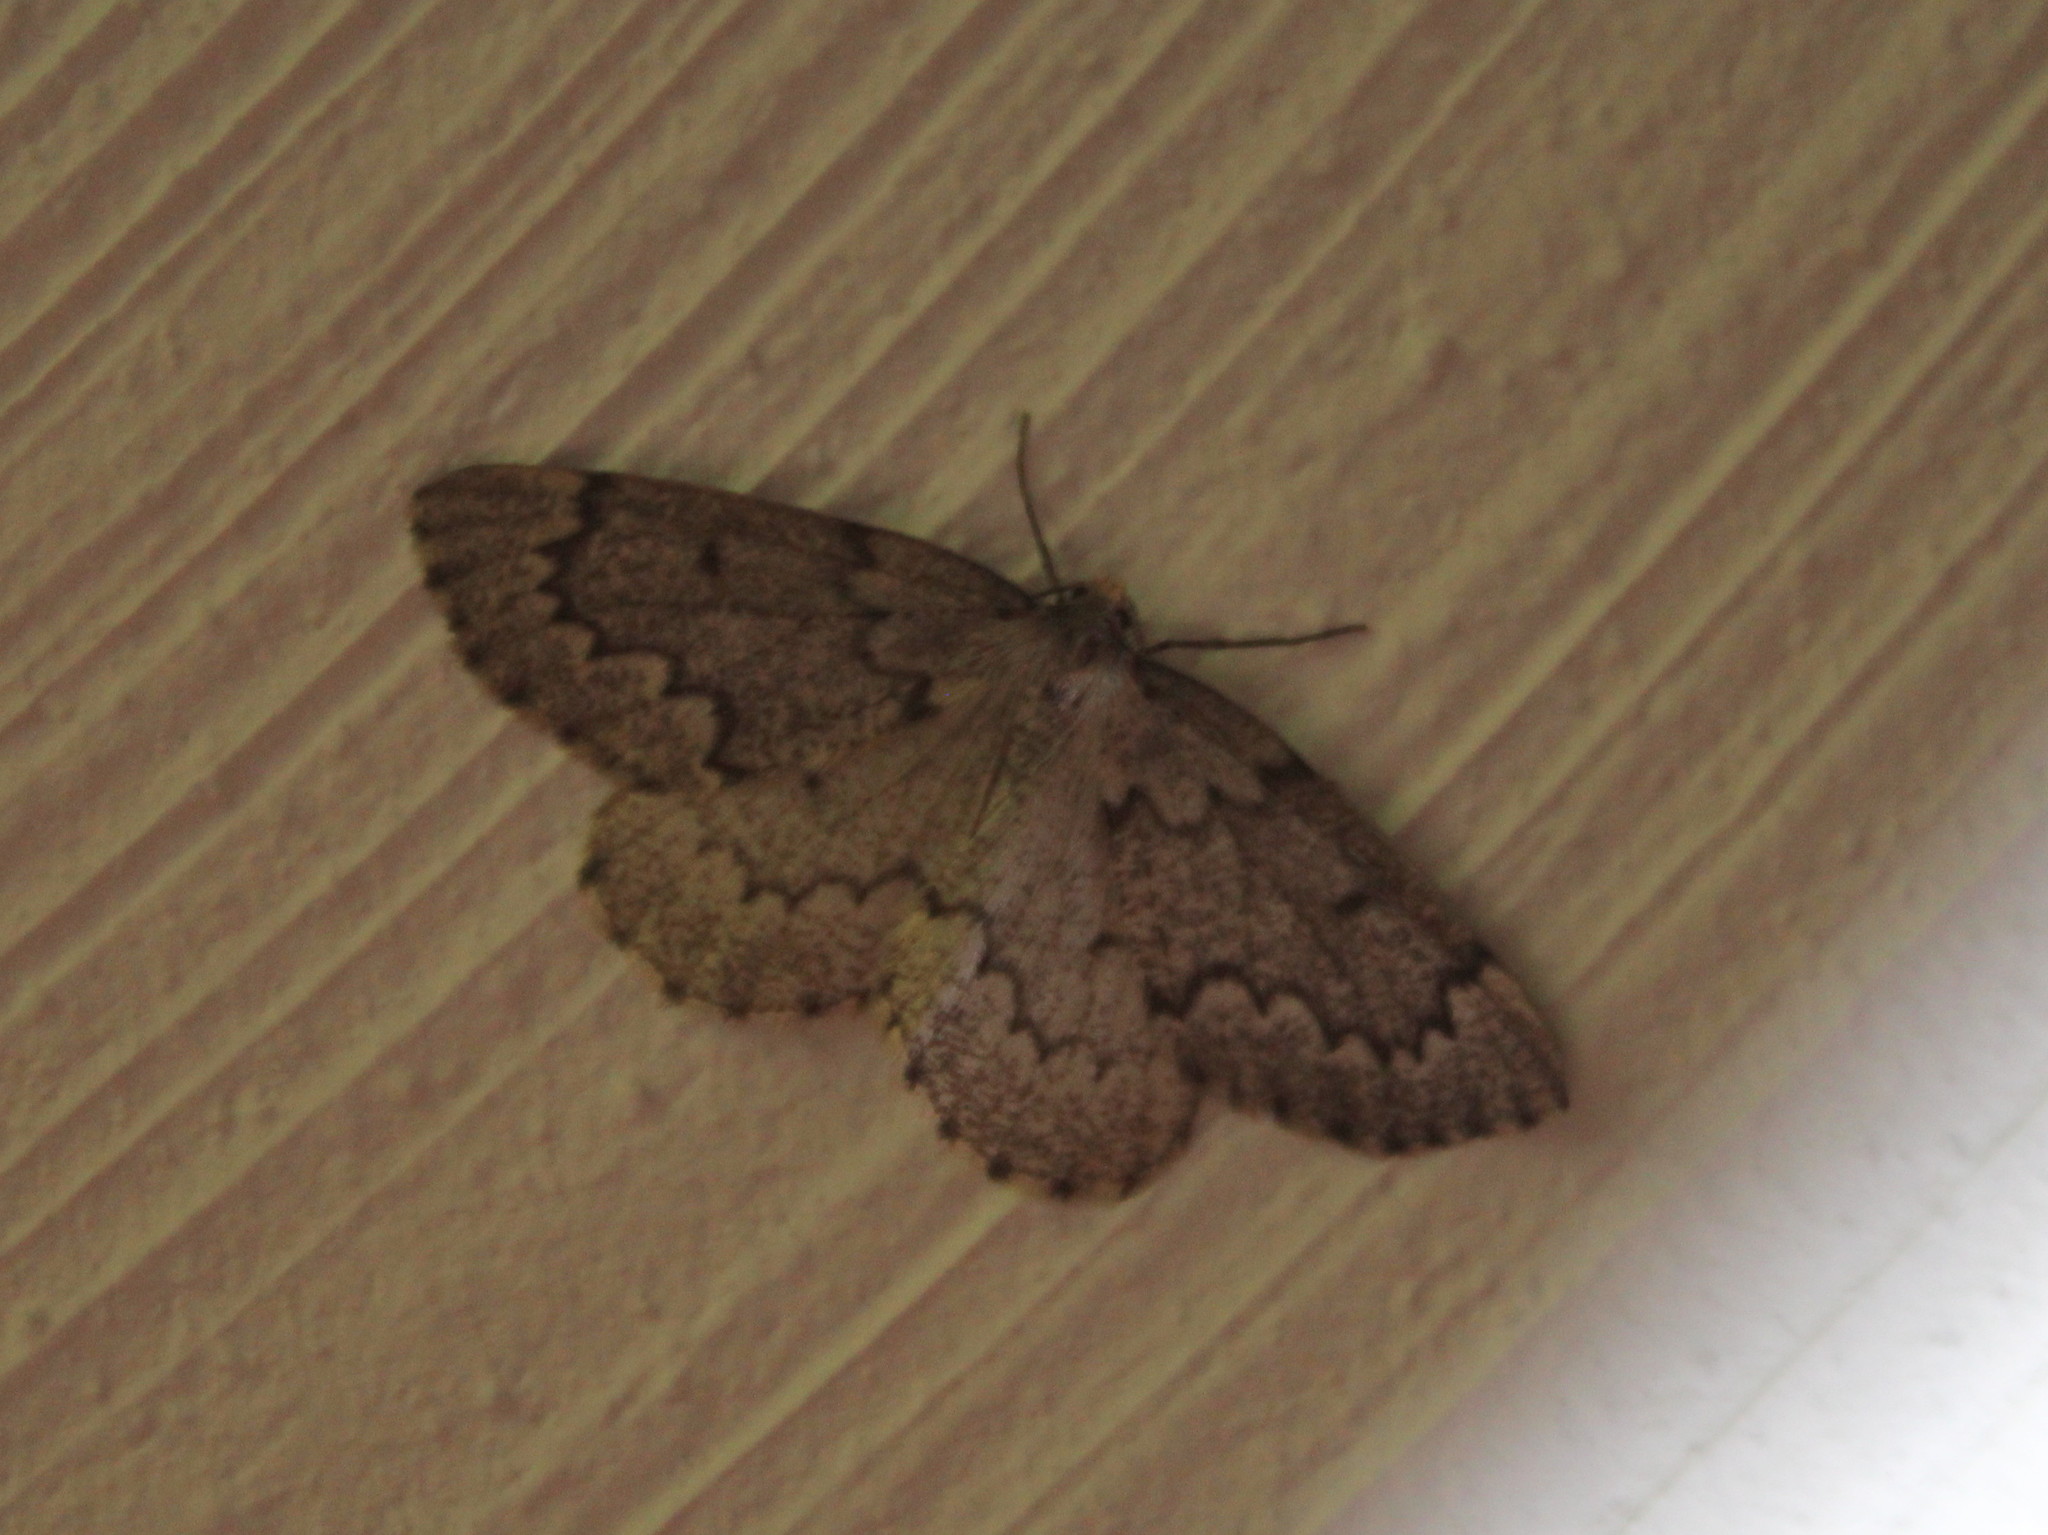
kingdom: Animalia
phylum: Arthropoda
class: Insecta
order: Lepidoptera
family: Geometridae
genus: Nepytia
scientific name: Nepytia canosaria
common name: False hemlock looper
